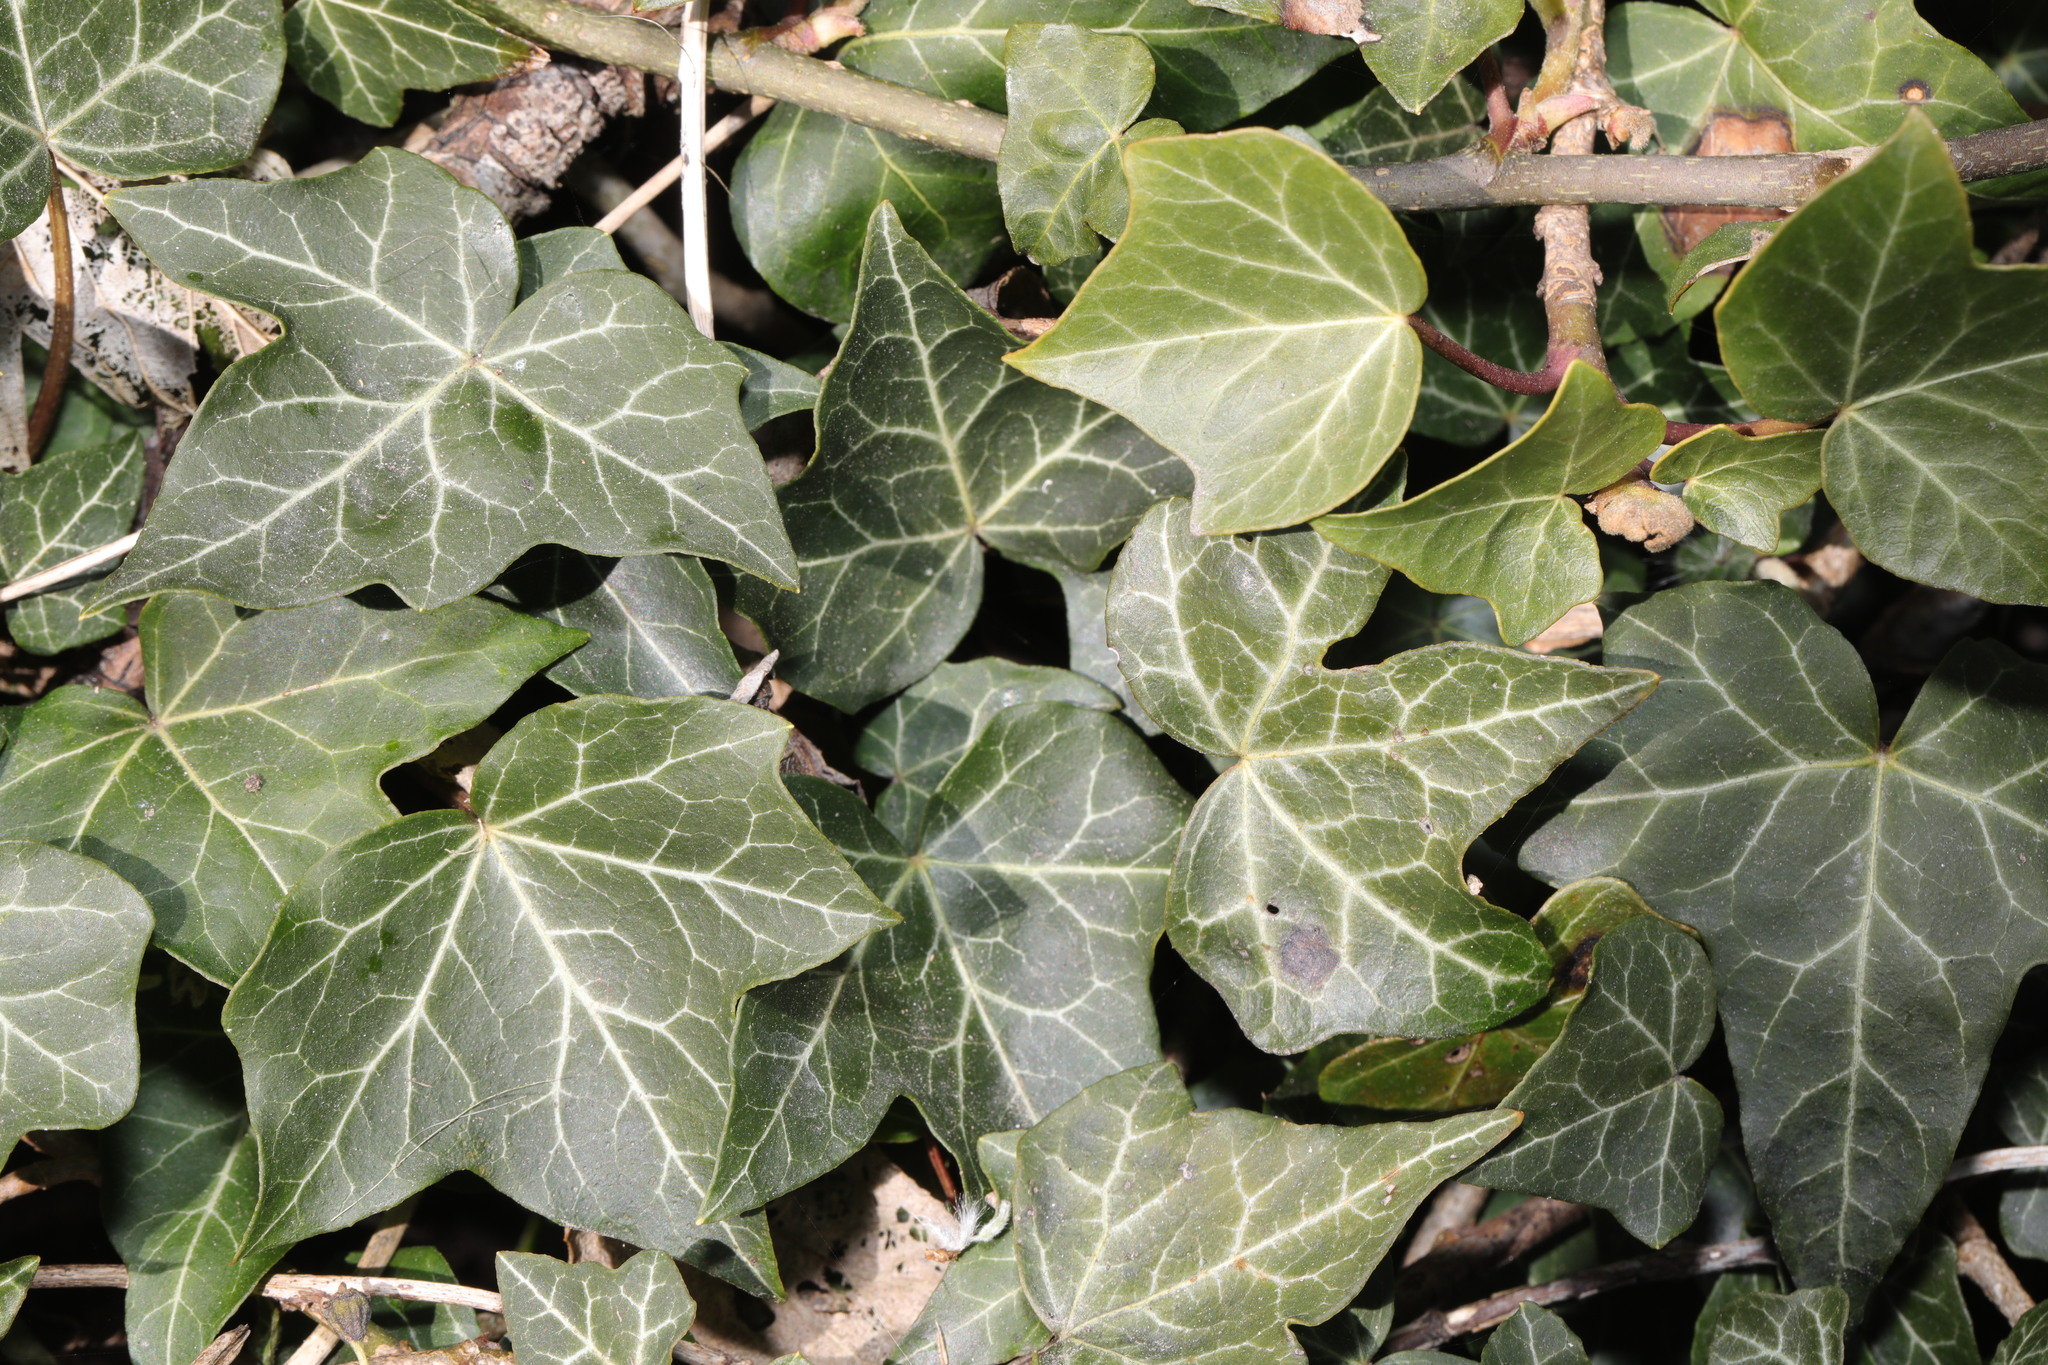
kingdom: Plantae
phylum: Tracheophyta
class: Magnoliopsida
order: Apiales
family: Araliaceae
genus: Hedera
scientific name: Hedera helix
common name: Ivy
